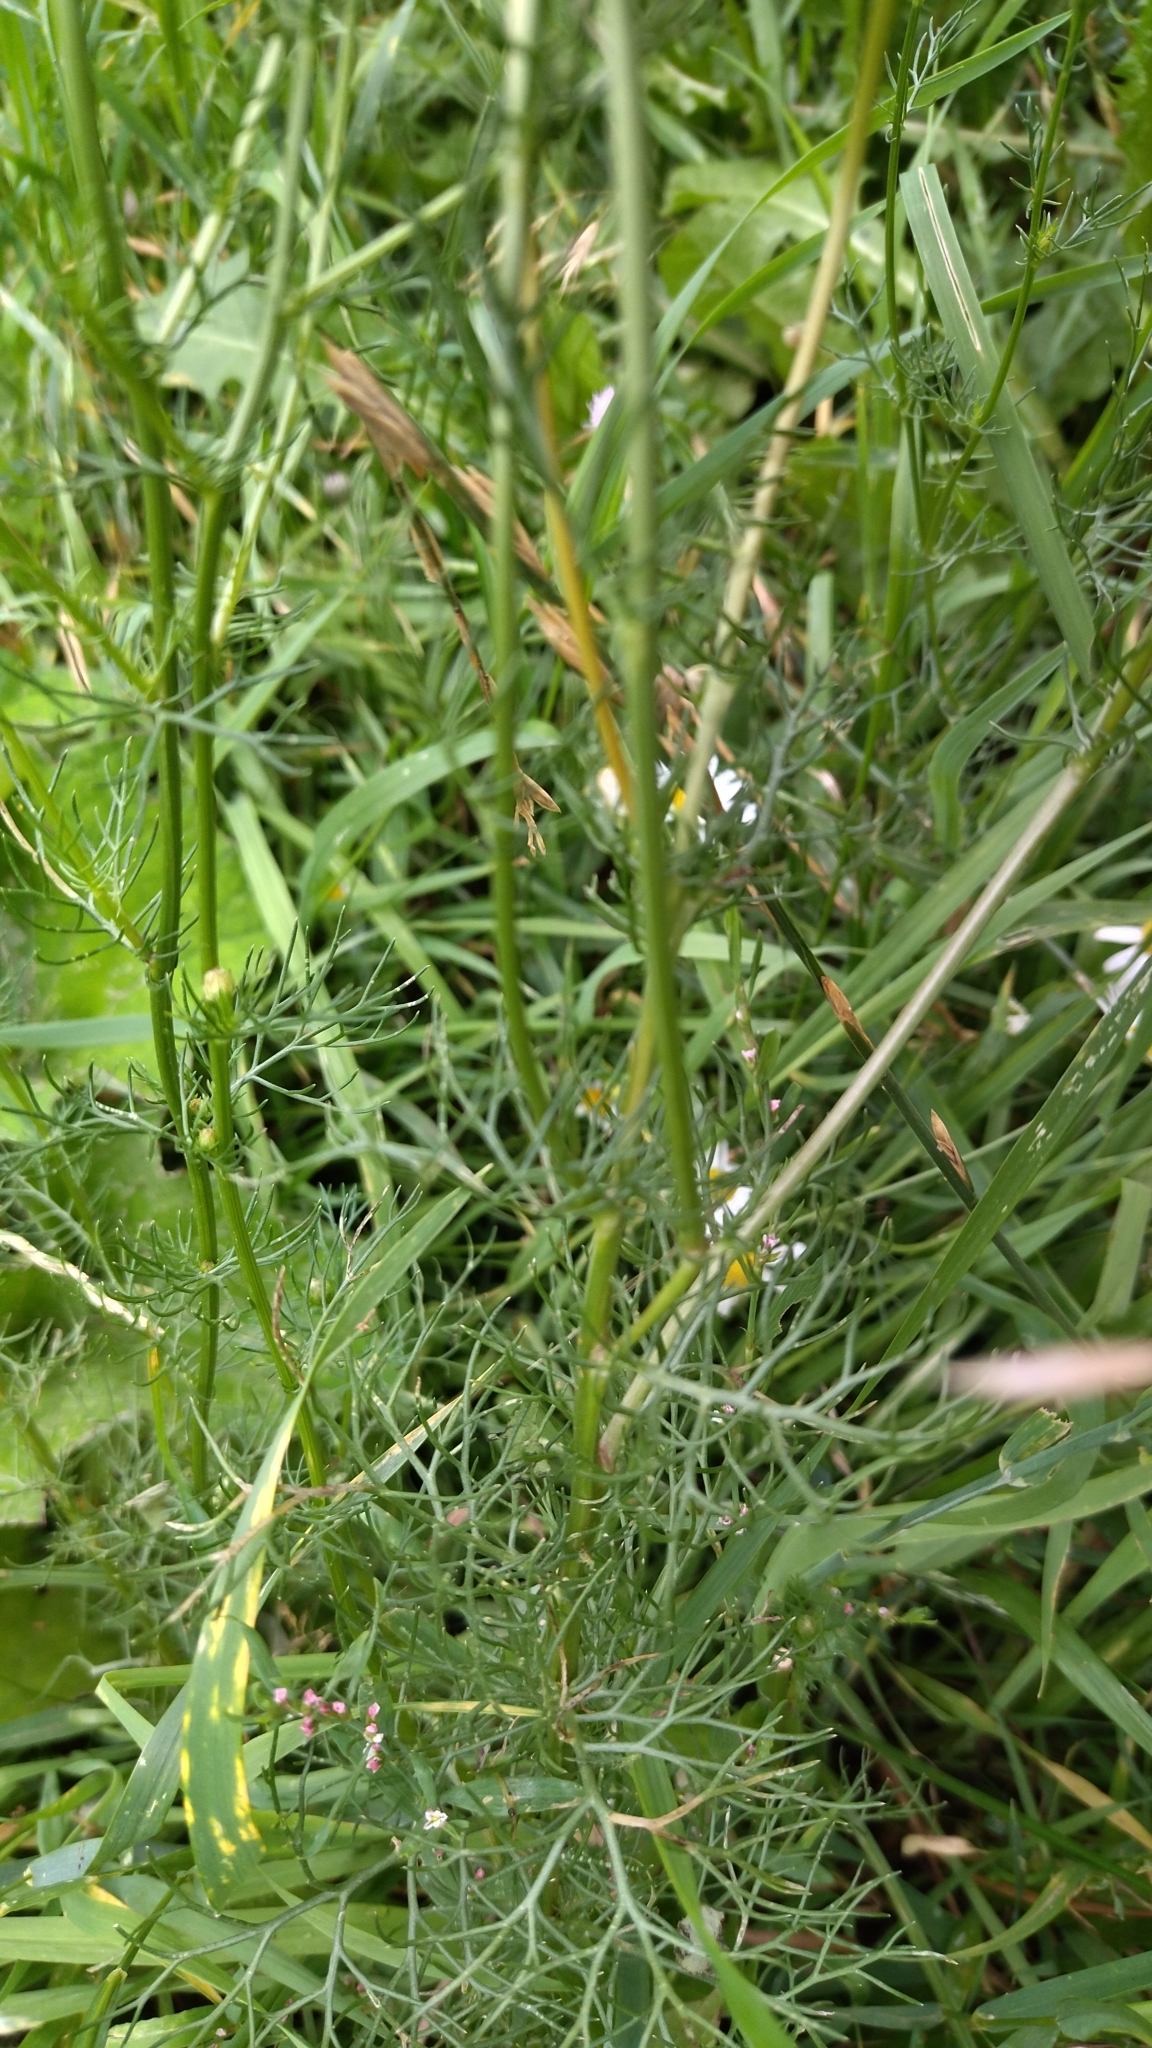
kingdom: Plantae
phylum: Tracheophyta
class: Magnoliopsida
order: Asterales
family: Asteraceae
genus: Tripleurospermum
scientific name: Tripleurospermum inodorum
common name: Scentless mayweed
